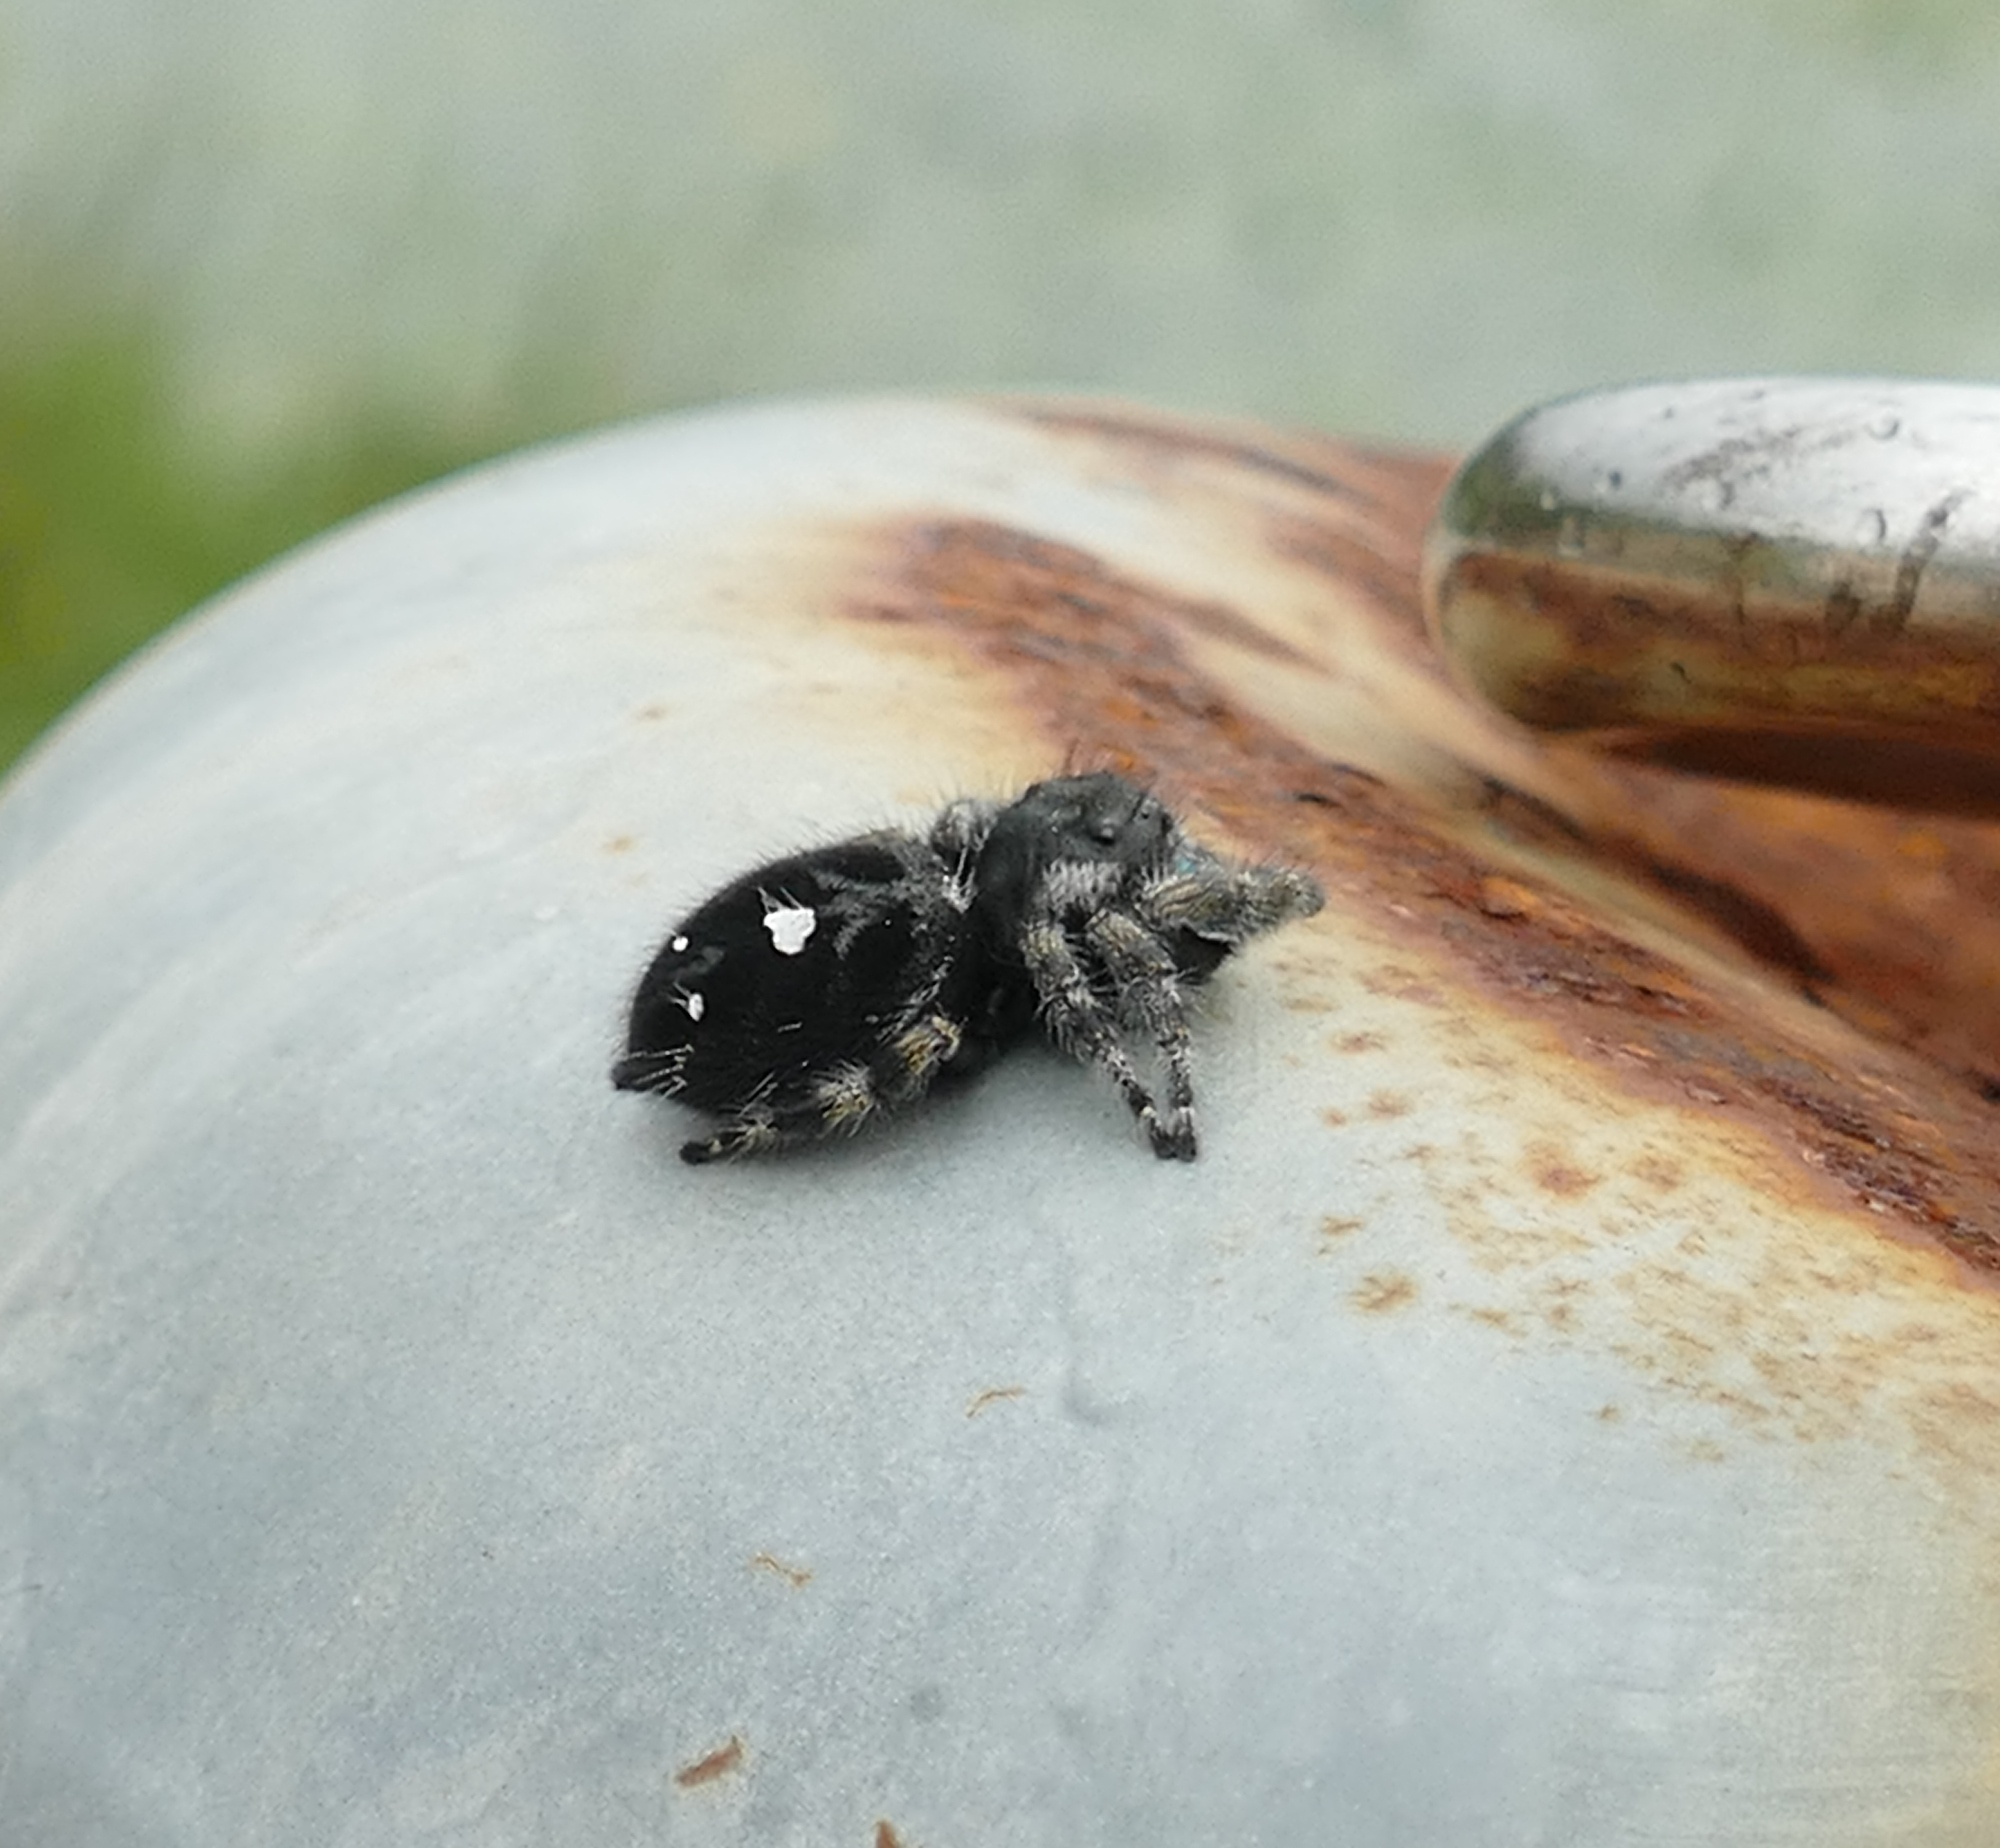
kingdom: Animalia
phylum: Arthropoda
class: Arachnida
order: Araneae
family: Salticidae
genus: Phidippus
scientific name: Phidippus audax
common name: Bold jumper
